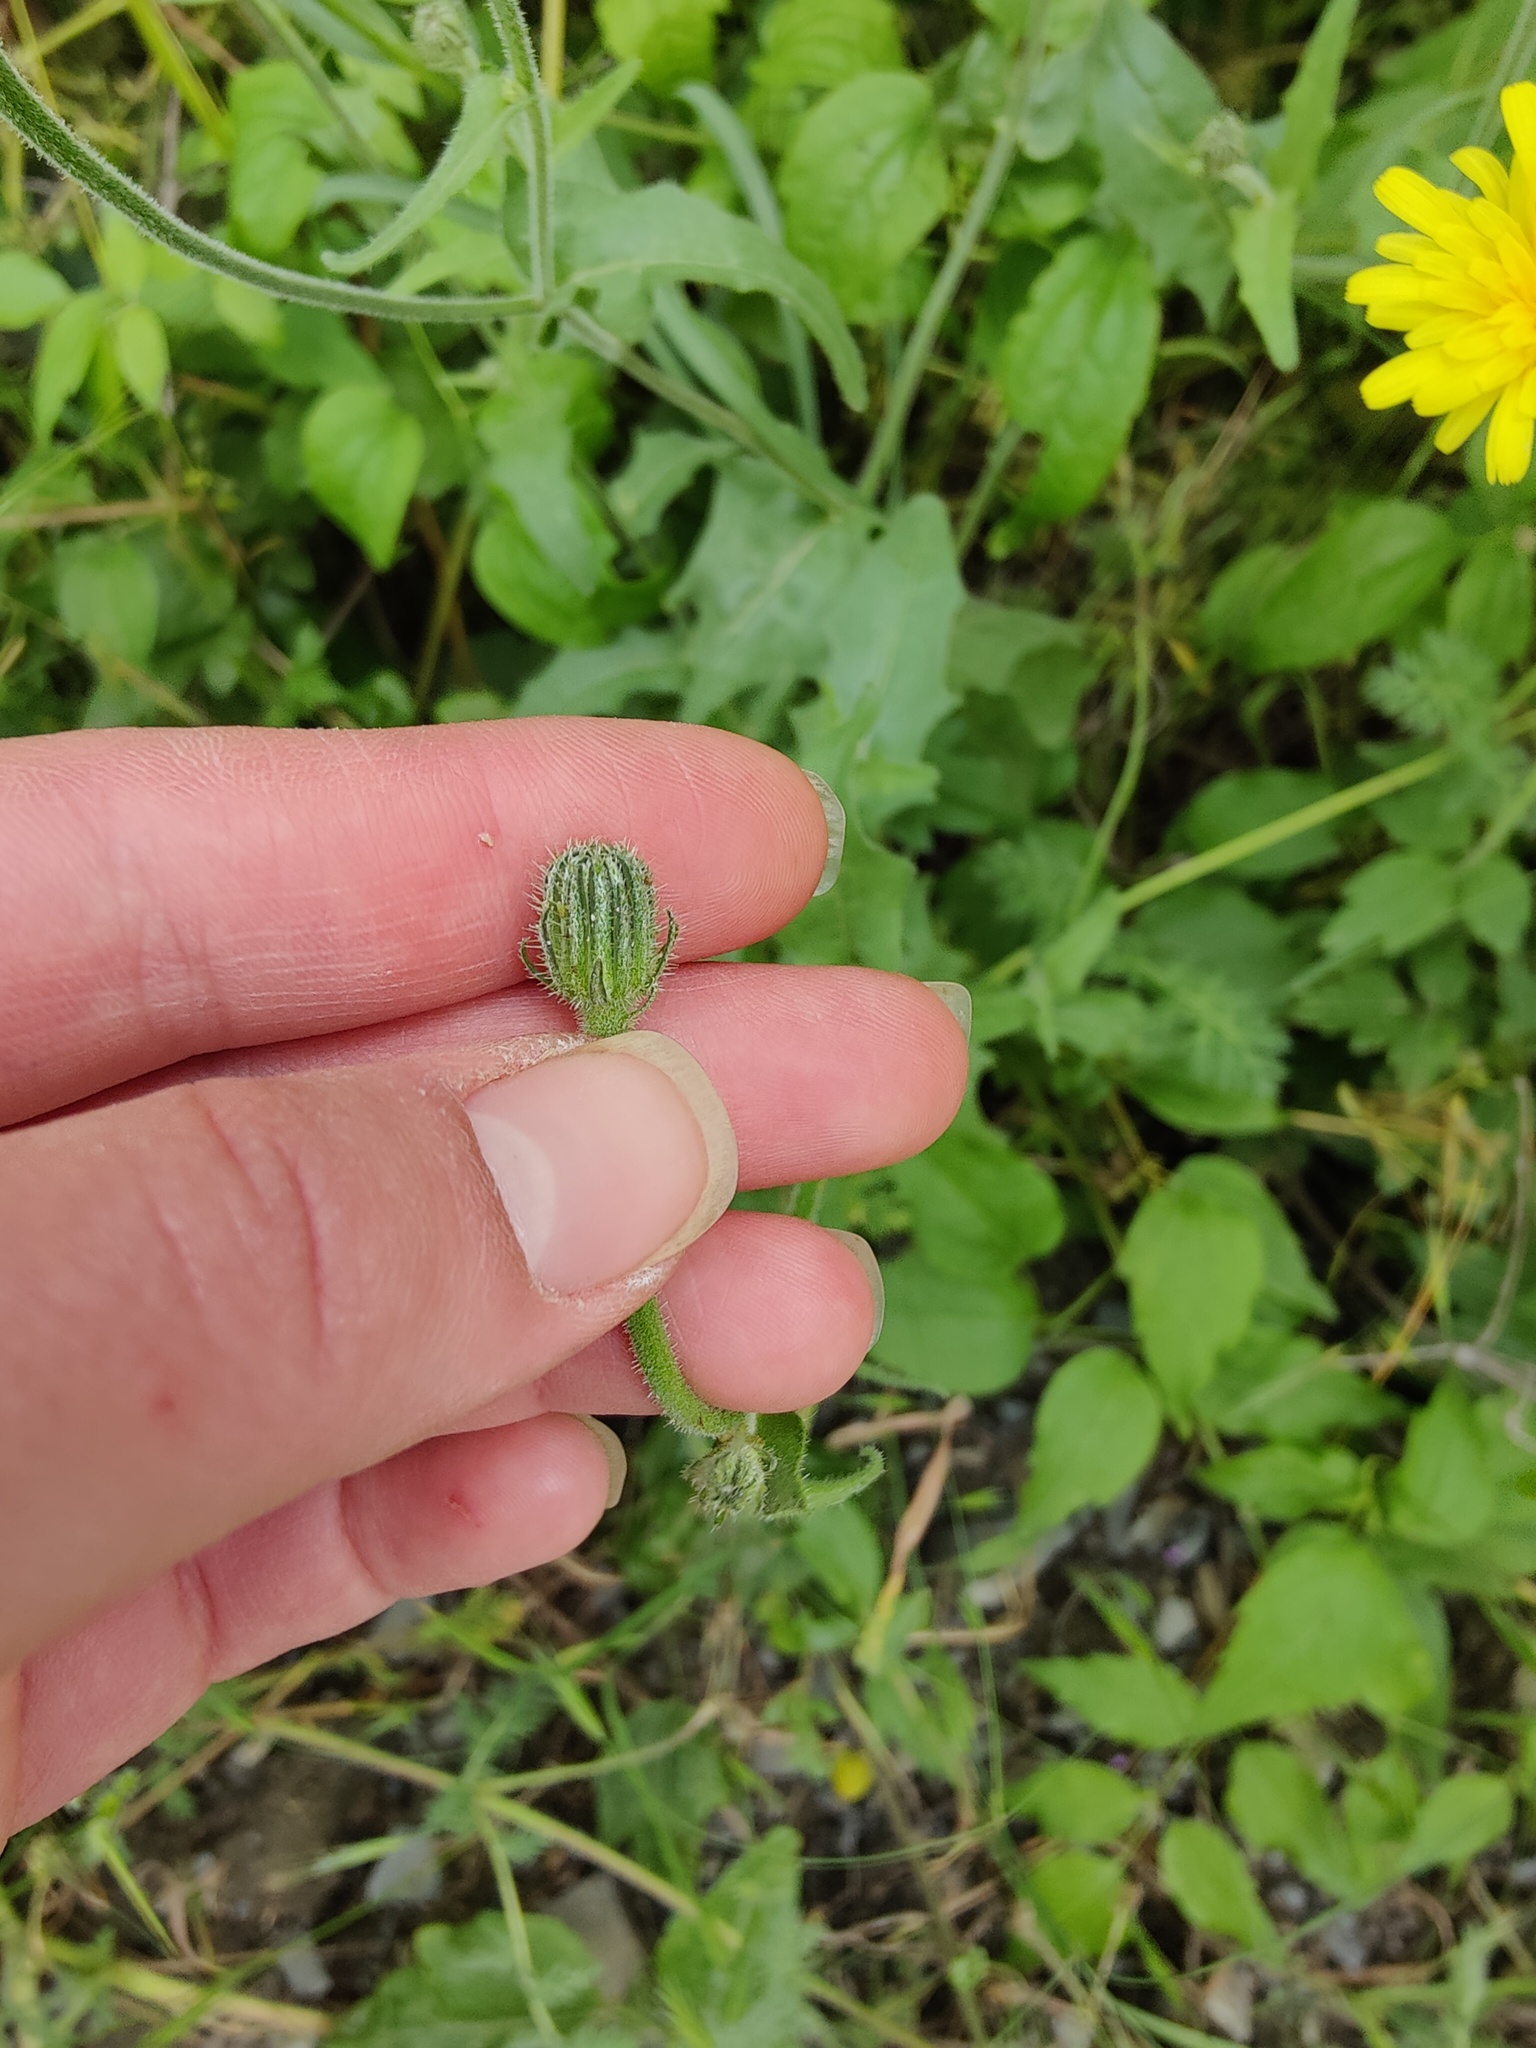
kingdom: Plantae
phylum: Tracheophyta
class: Magnoliopsida
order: Asterales
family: Asteraceae
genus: Picris
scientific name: Picris pauciflora
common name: Smallflower oxtongue
